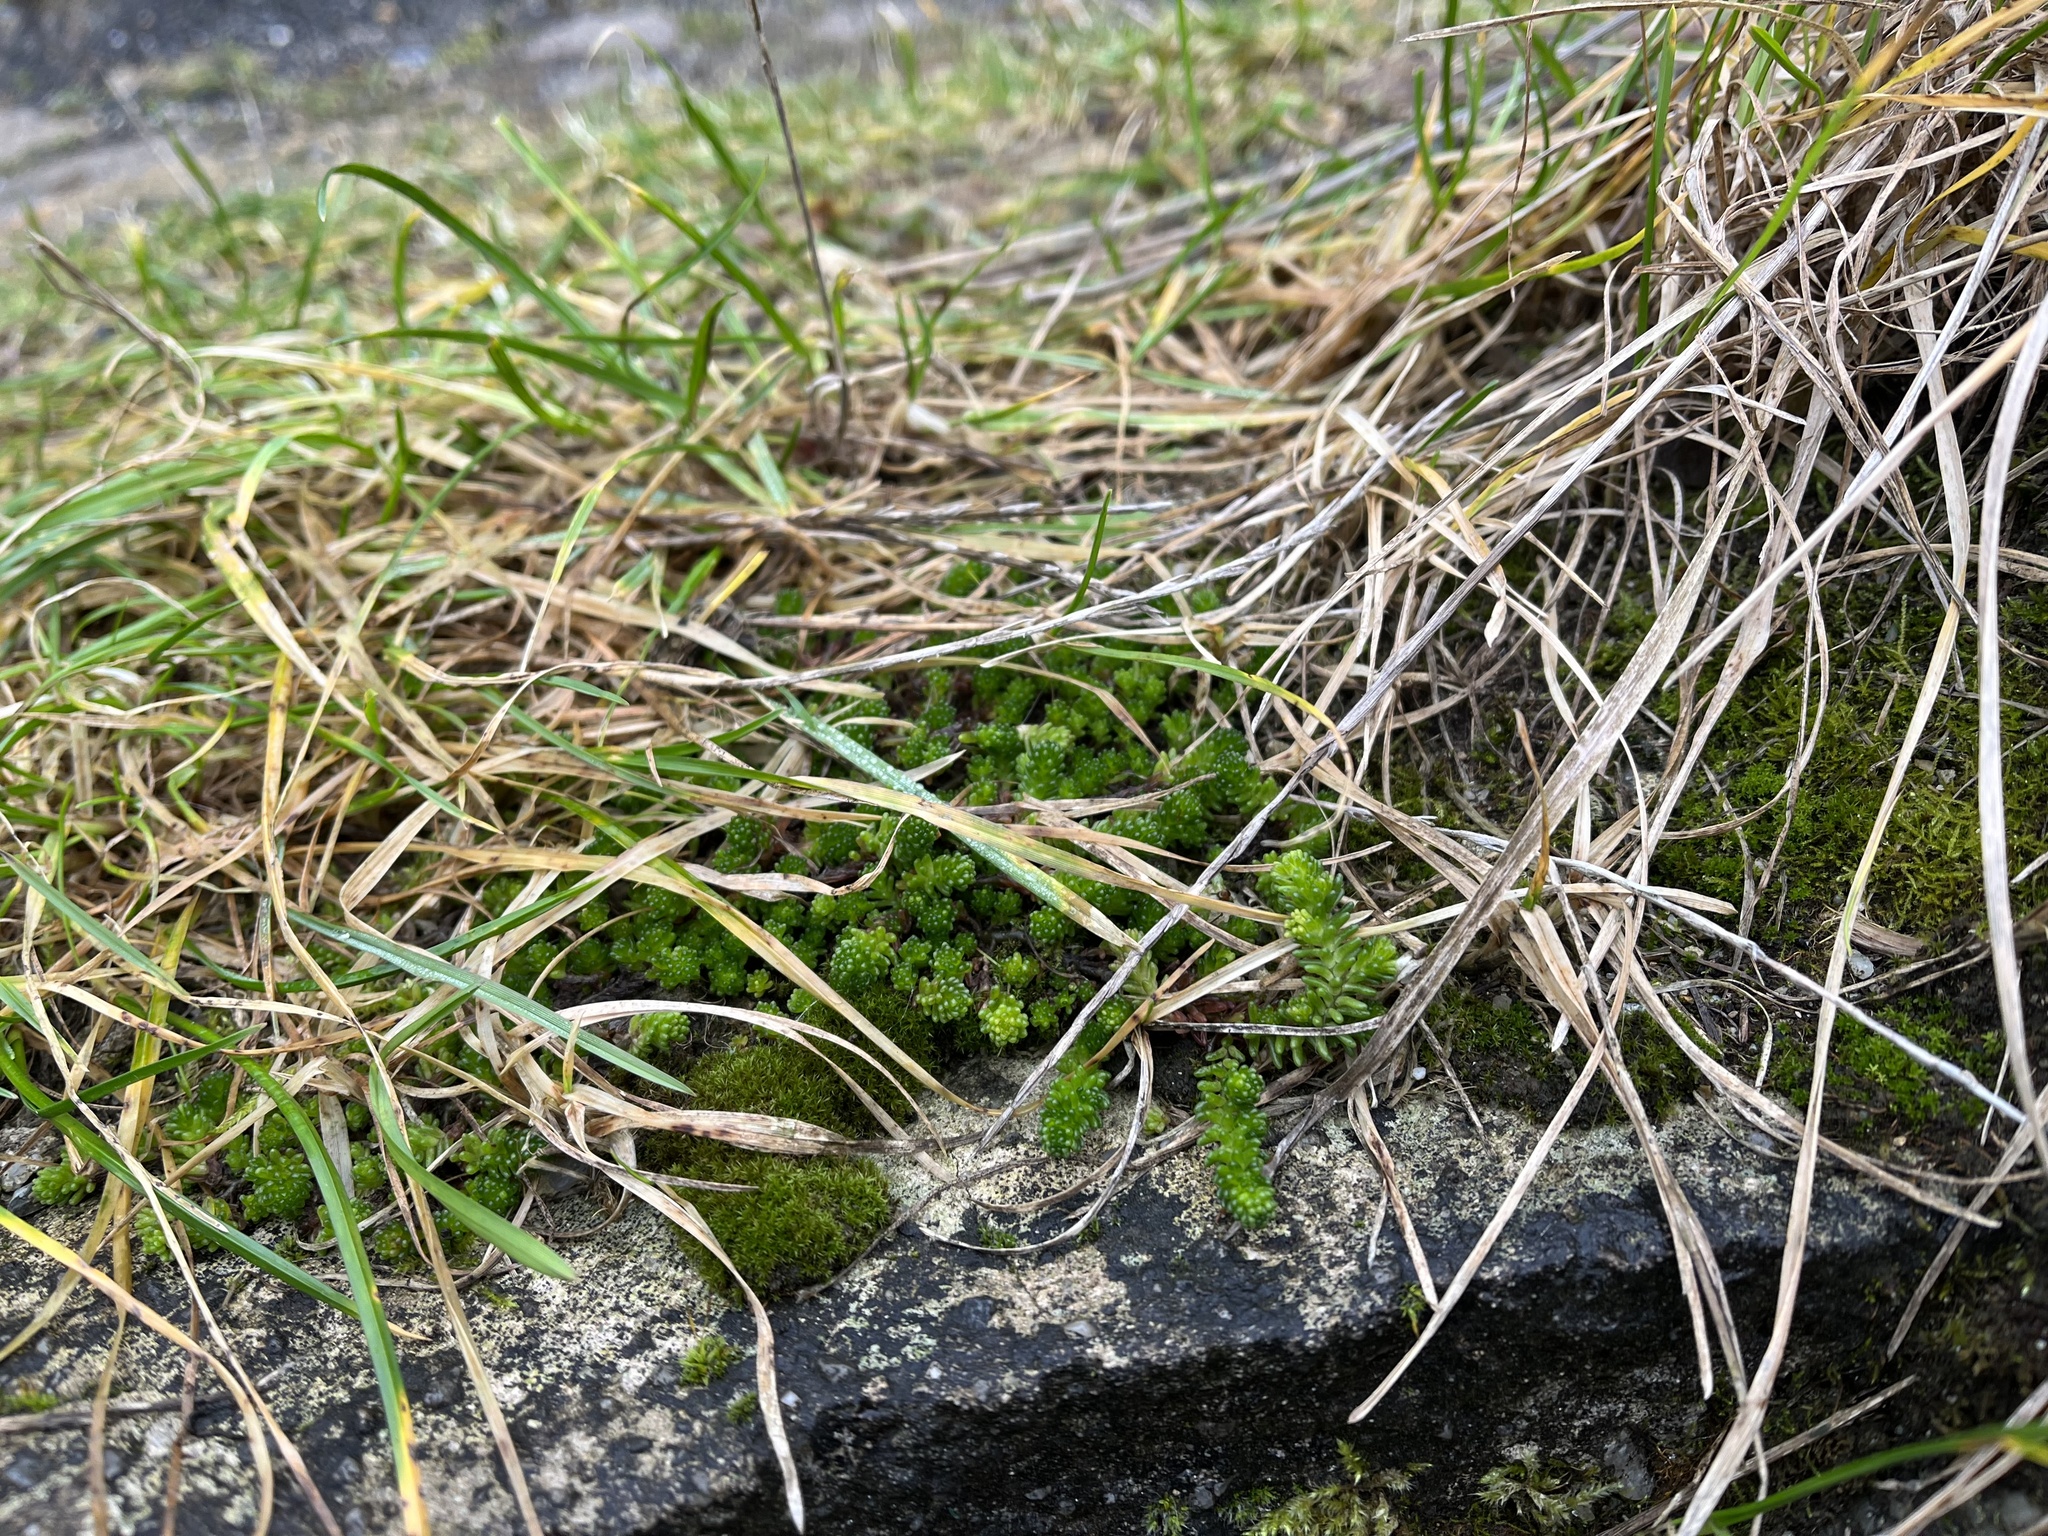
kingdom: Plantae
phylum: Tracheophyta
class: Magnoliopsida
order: Saxifragales
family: Crassulaceae
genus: Sedum
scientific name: Sedum sexangulare
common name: Tasteless stonecrop
